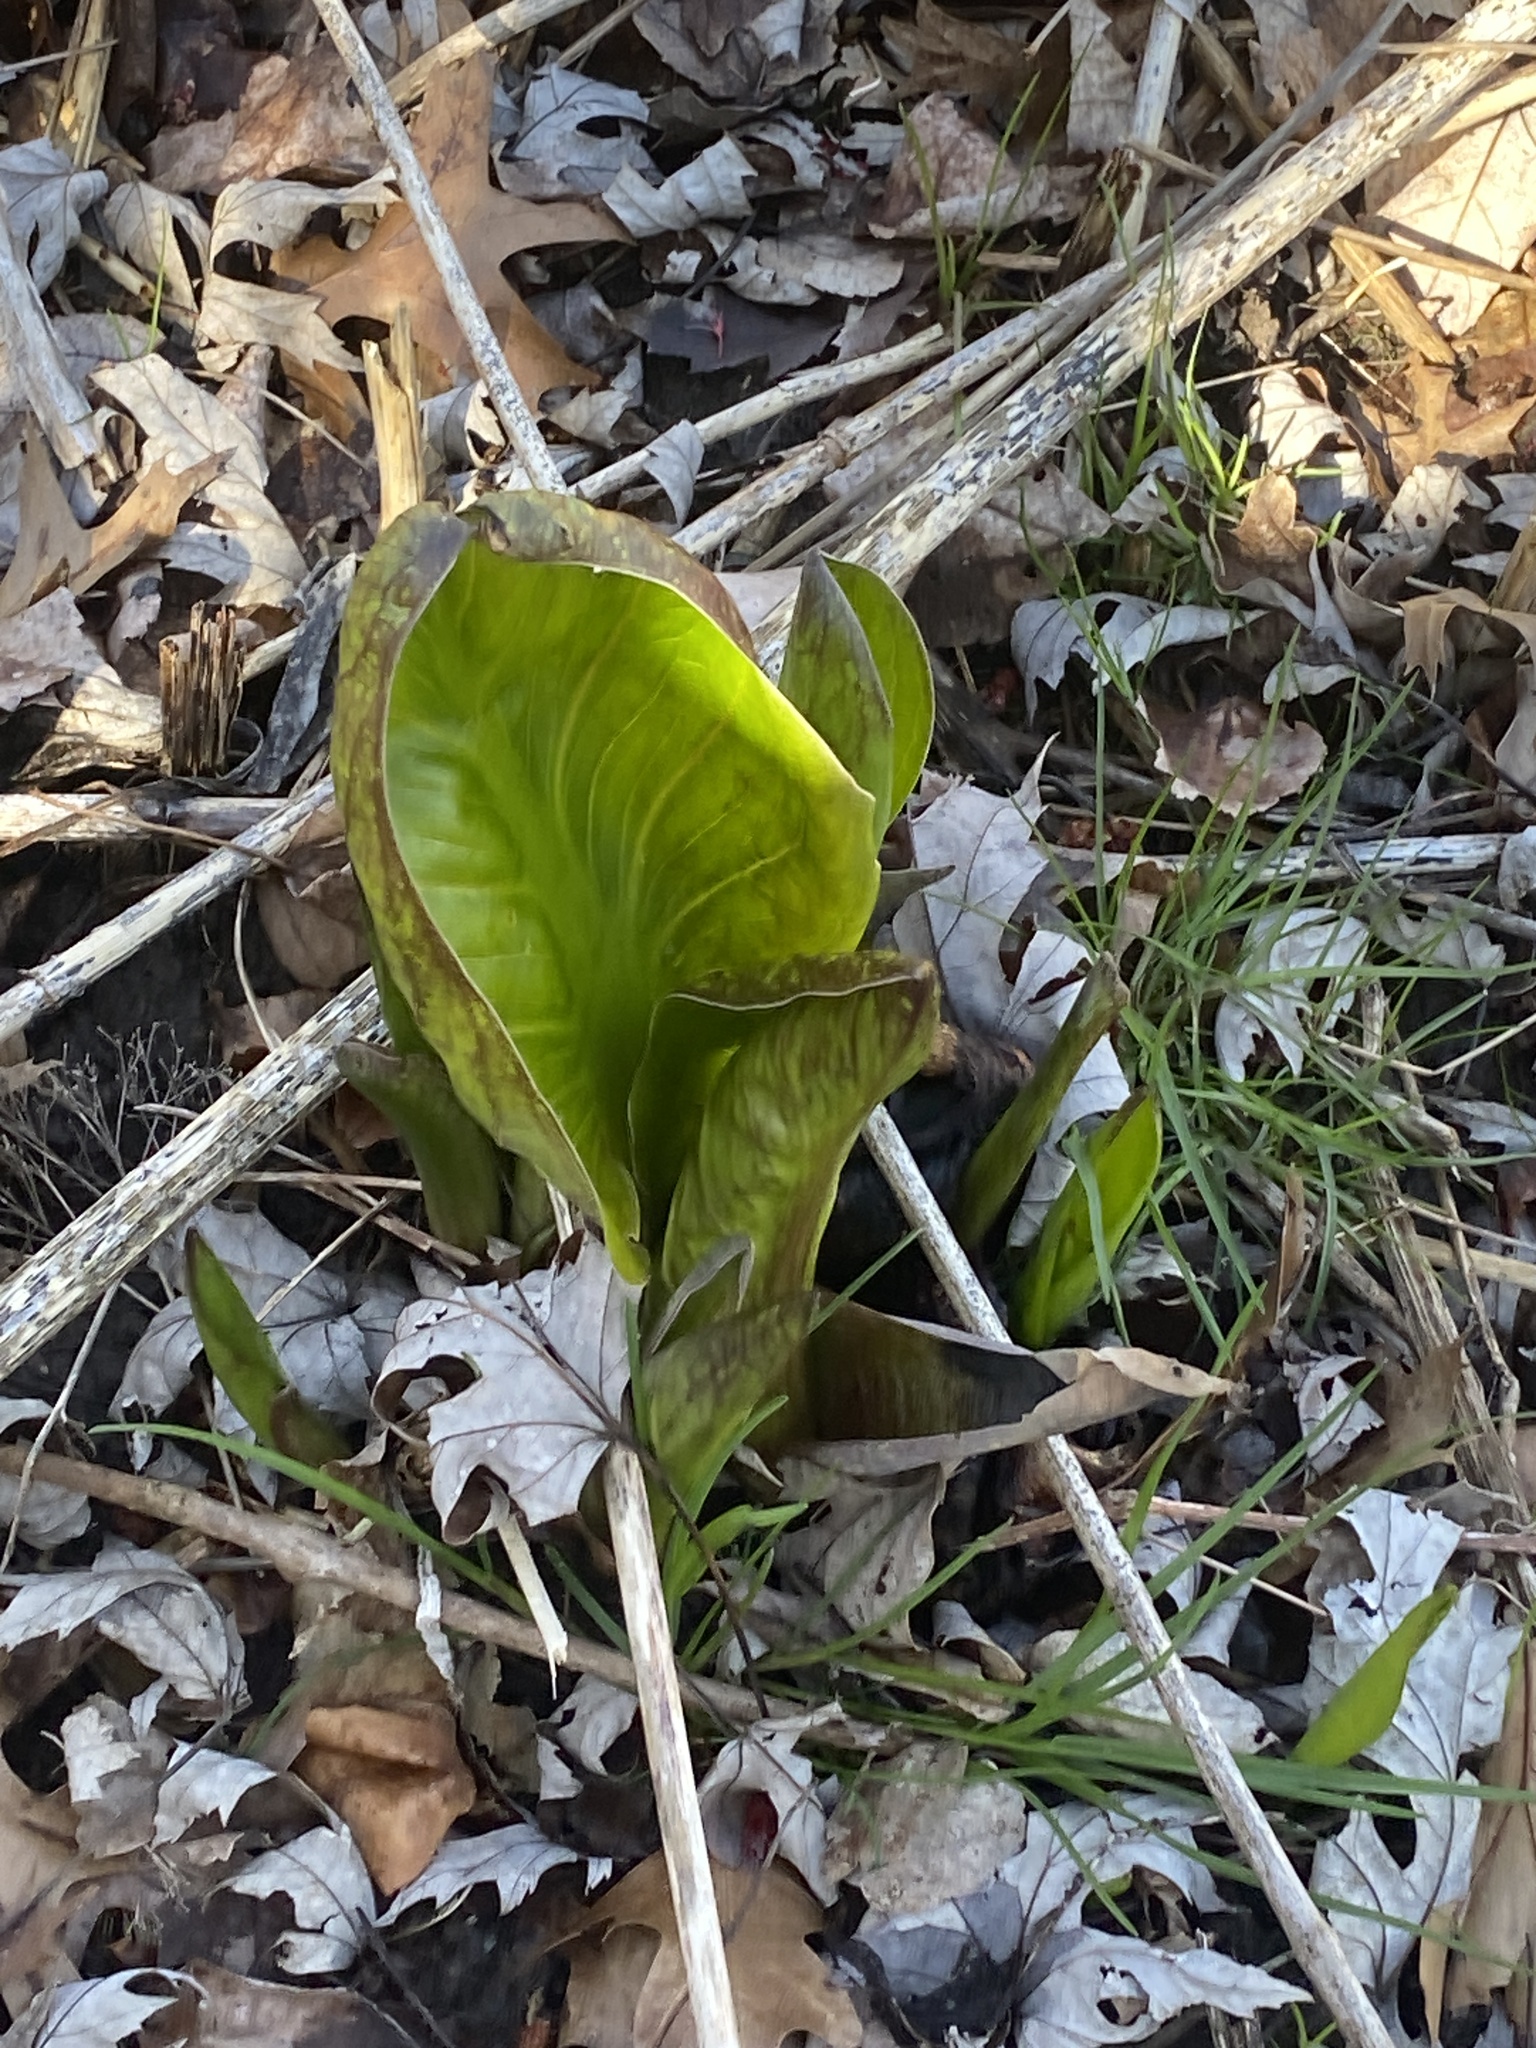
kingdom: Plantae
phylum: Tracheophyta
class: Liliopsida
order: Alismatales
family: Araceae
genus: Symplocarpus
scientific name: Symplocarpus foetidus
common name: Eastern skunk cabbage
